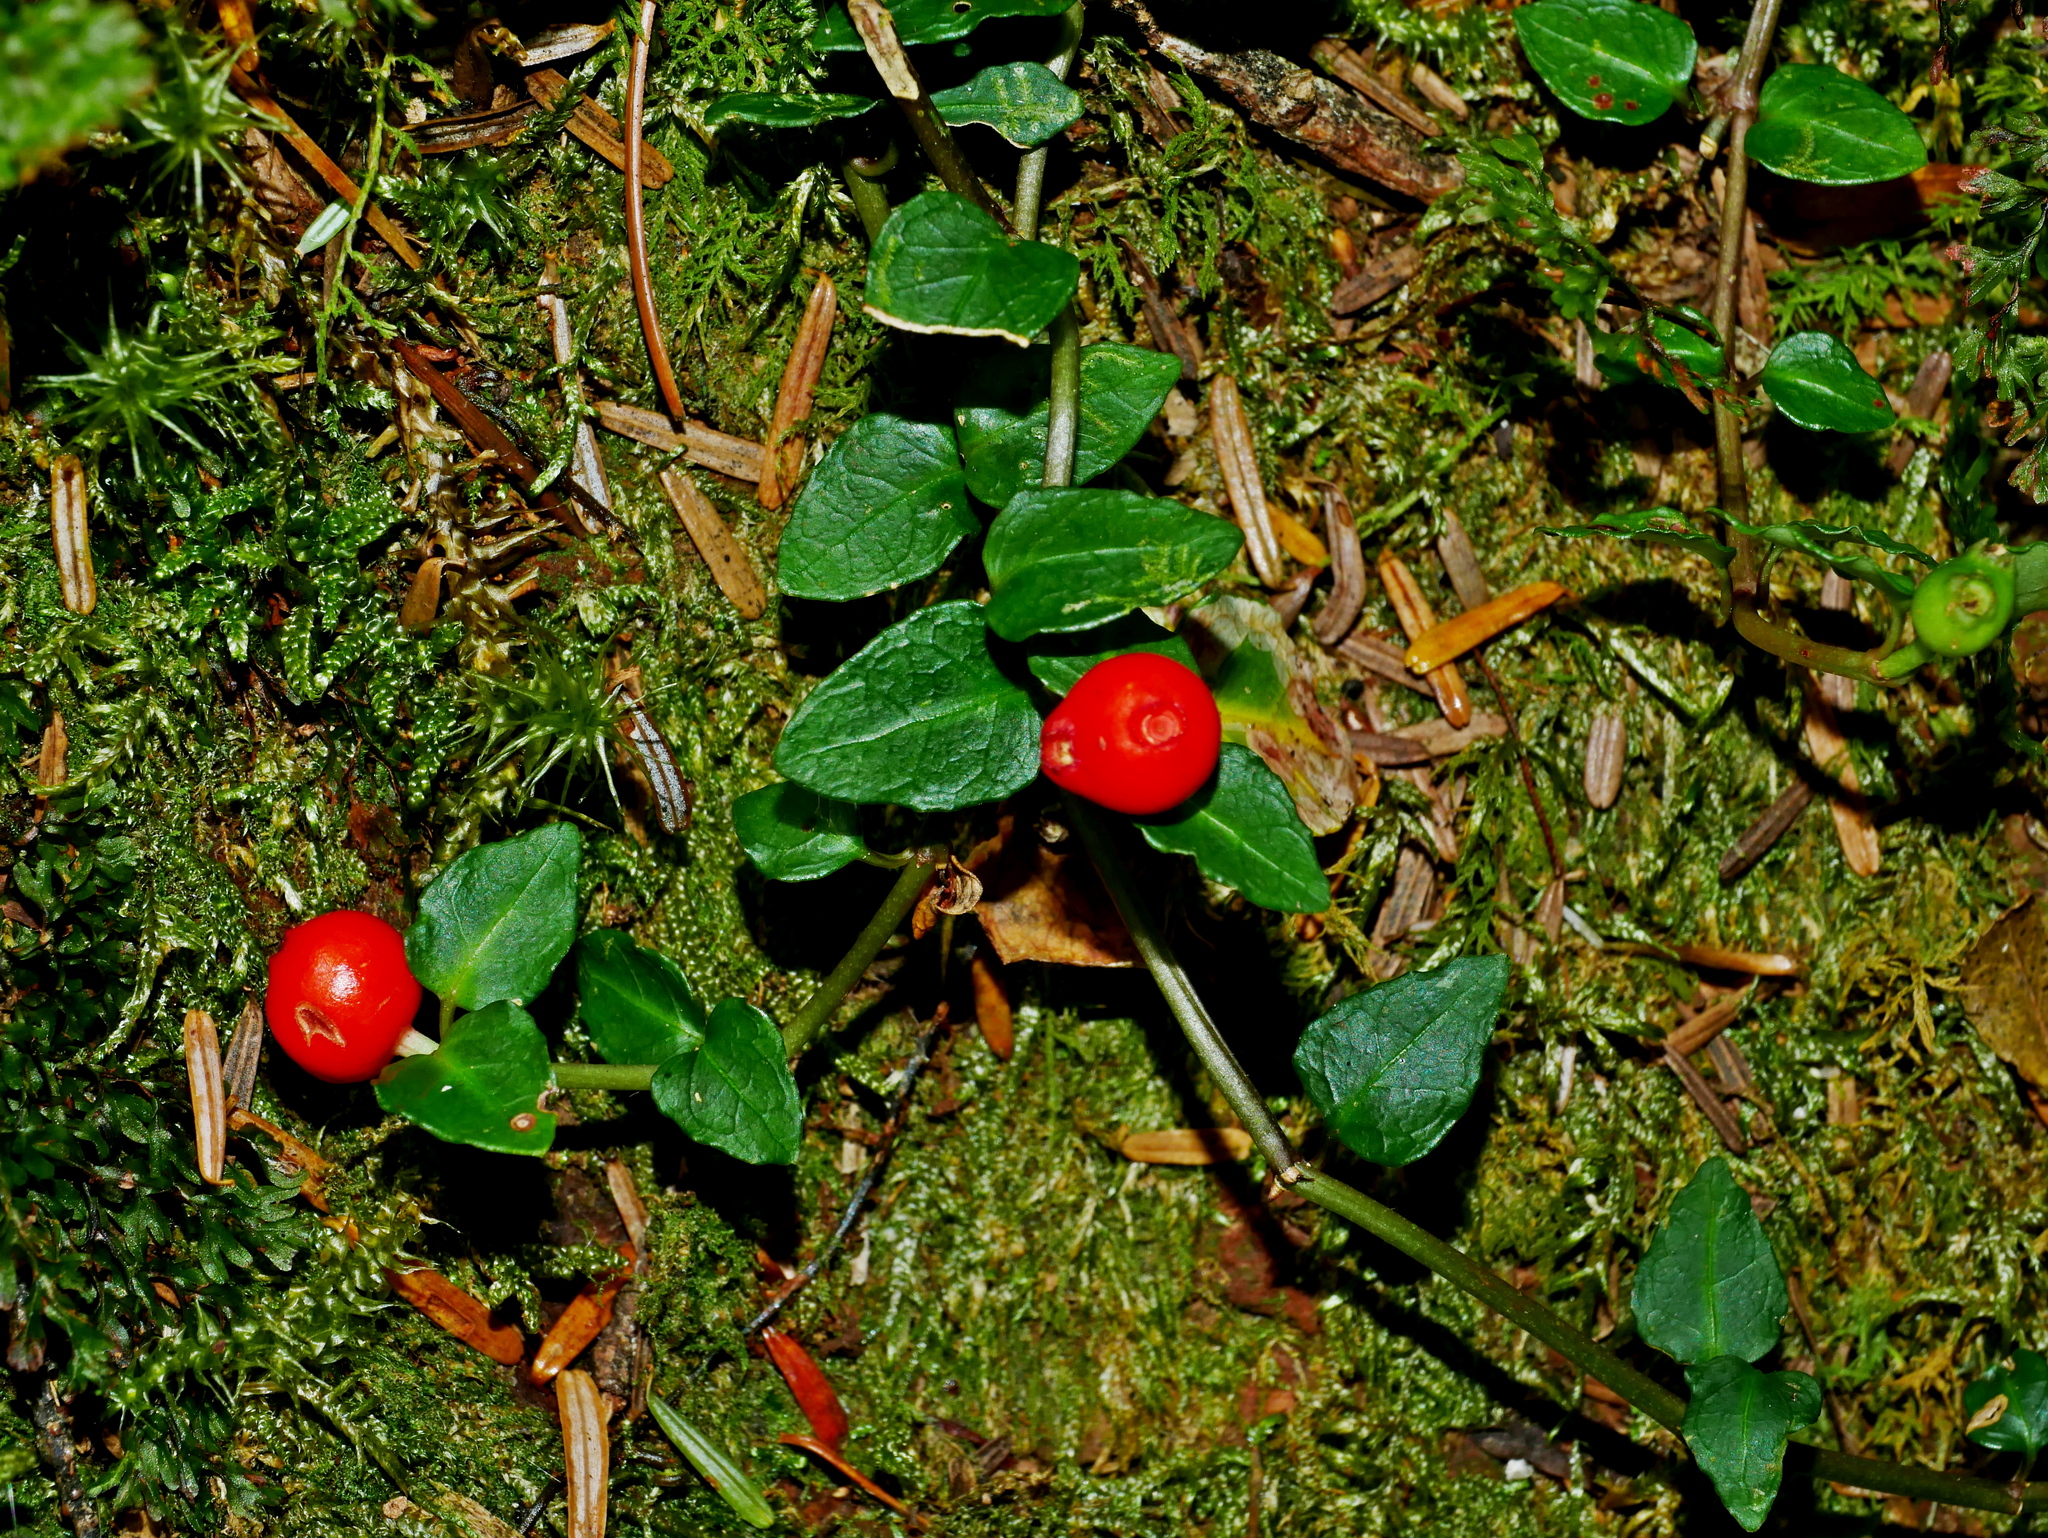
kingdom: Plantae
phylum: Tracheophyta
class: Magnoliopsida
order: Gentianales
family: Rubiaceae
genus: Mitchella
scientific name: Mitchella undulata
